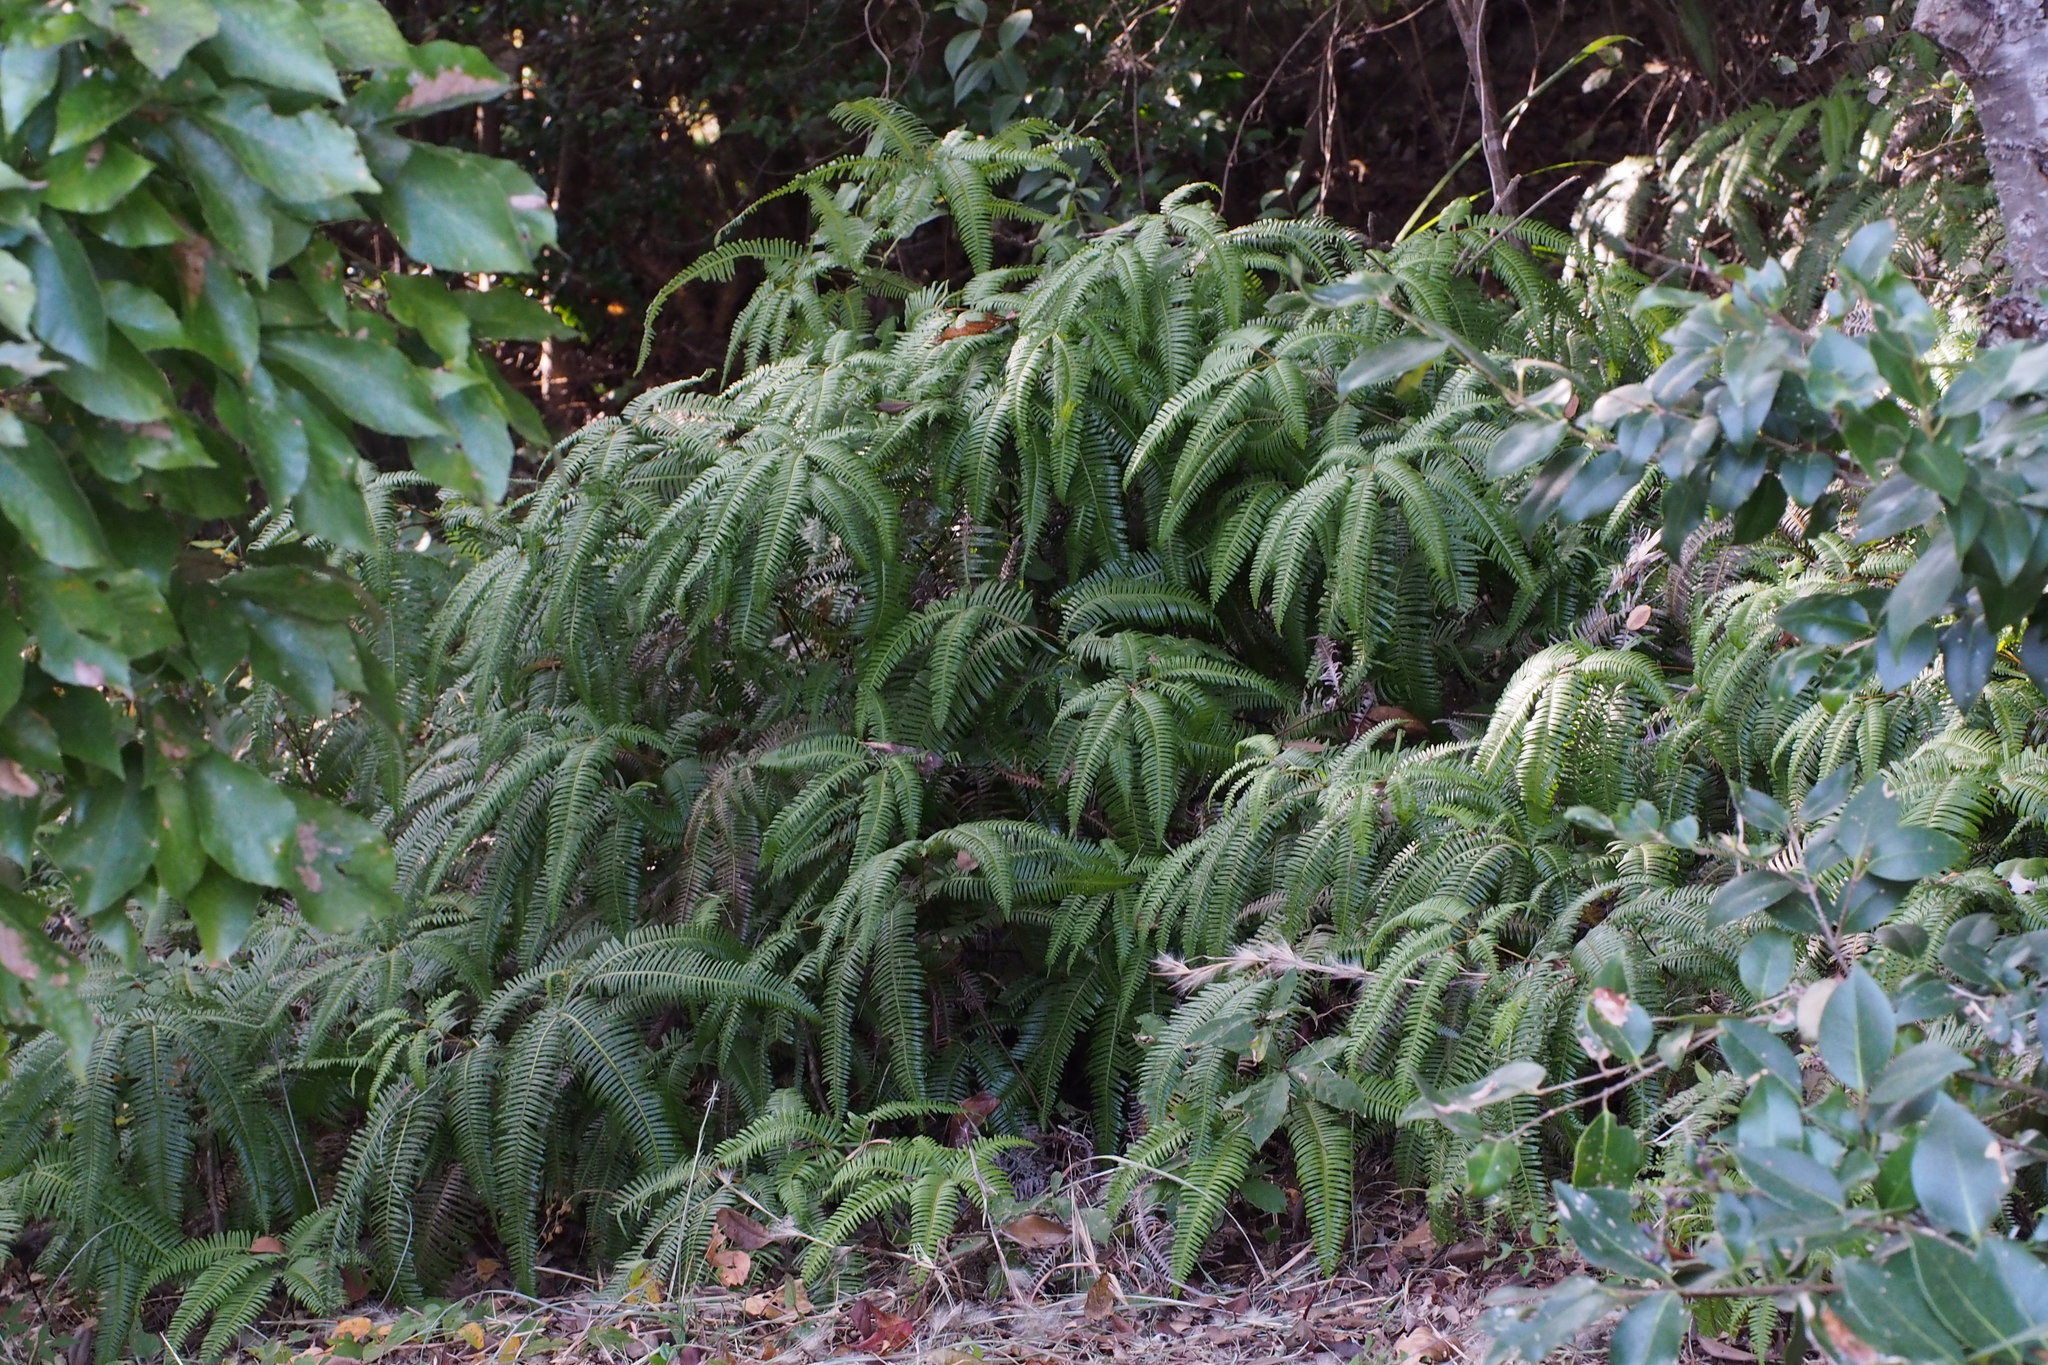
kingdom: Plantae
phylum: Tracheophyta
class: Polypodiopsida
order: Gleicheniales
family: Gleicheniaceae
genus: Dicranopteris
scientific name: Dicranopteris linearis
